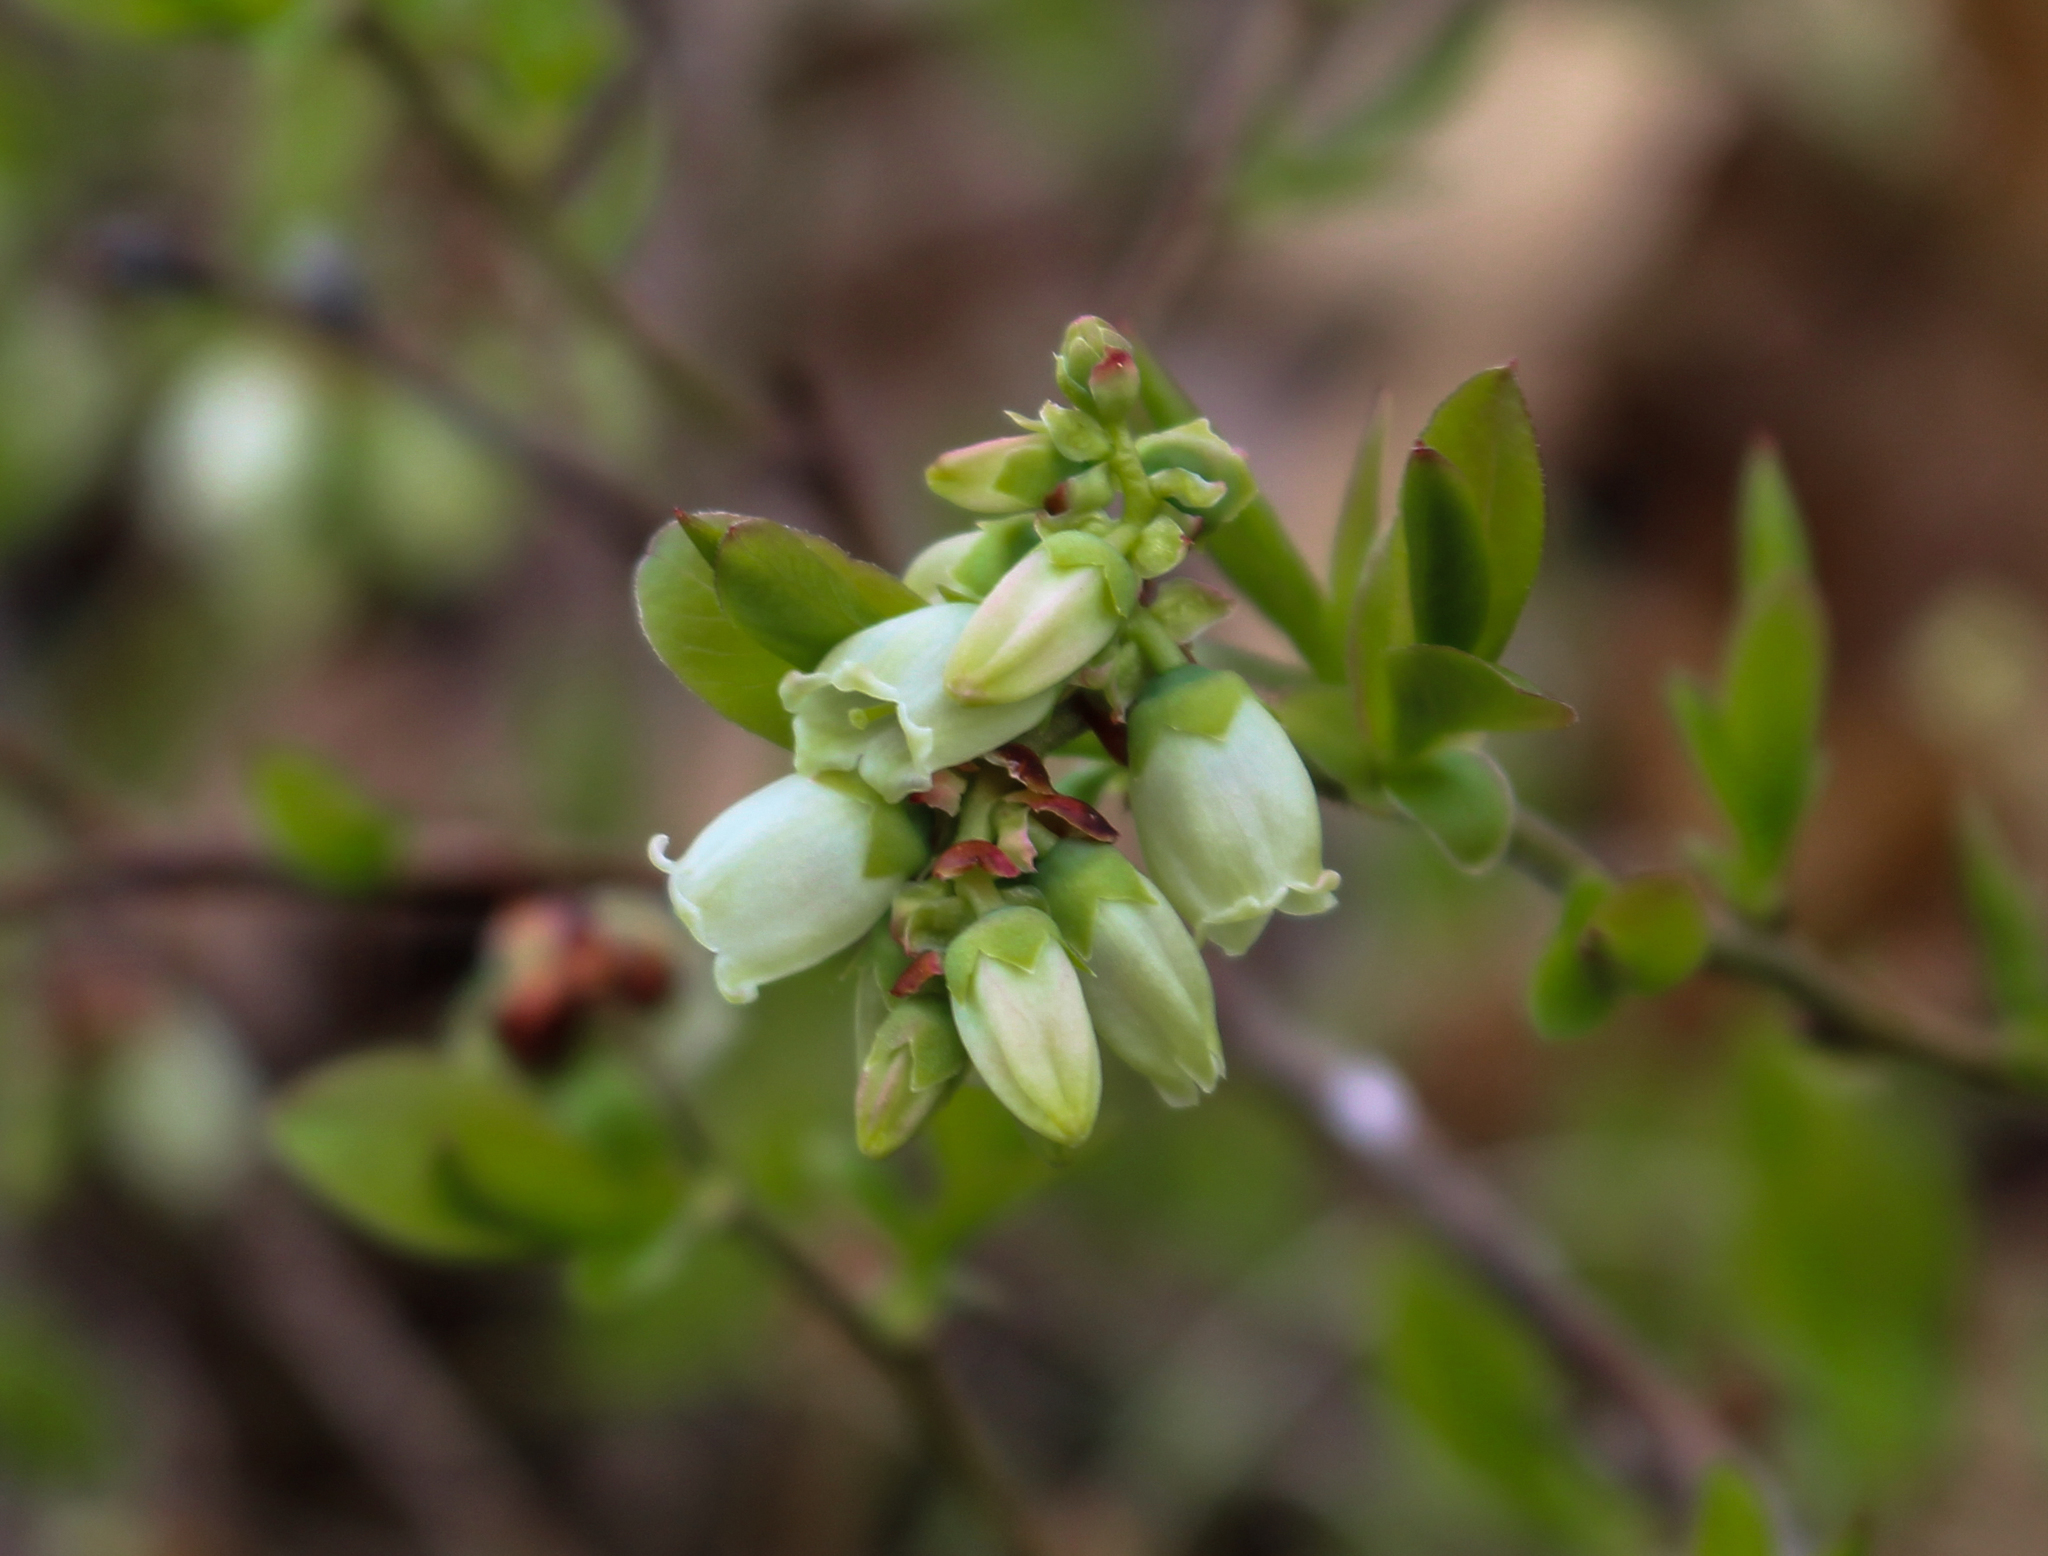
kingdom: Plantae
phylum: Tracheophyta
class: Magnoliopsida
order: Ericales
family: Ericaceae
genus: Vaccinium
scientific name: Vaccinium angustifolium
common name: Early lowbush blueberry
